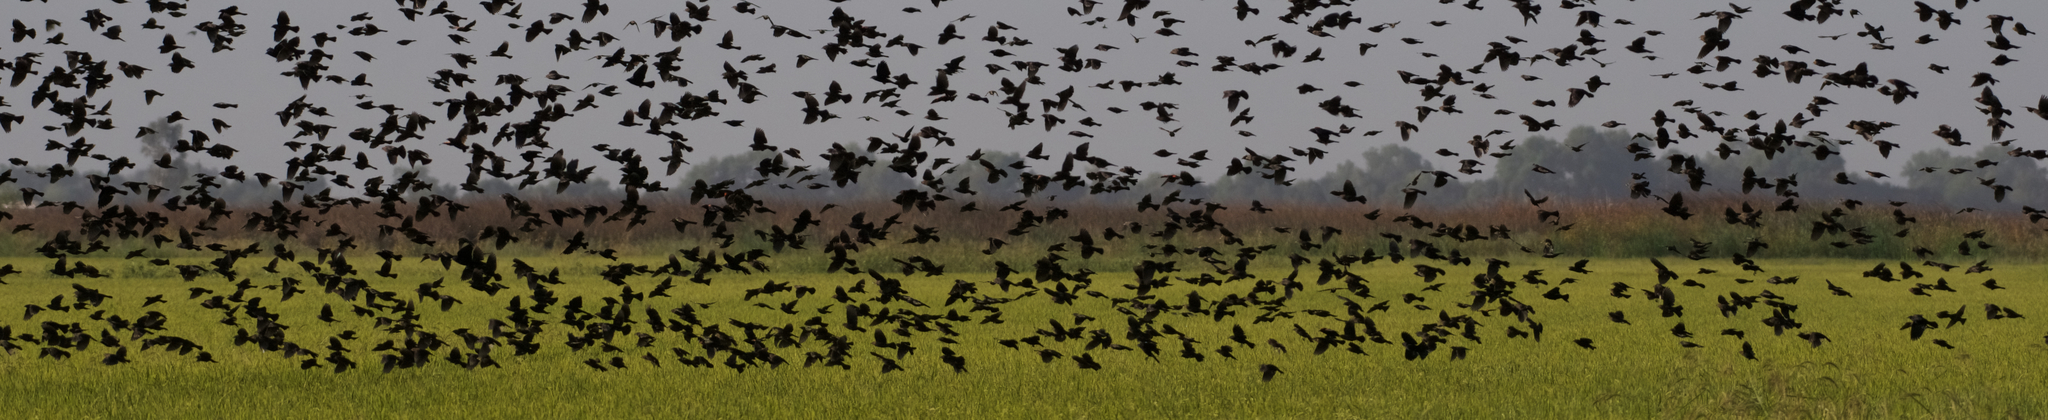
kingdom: Animalia
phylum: Chordata
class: Aves
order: Passeriformes
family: Icteridae
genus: Agelaius
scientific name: Agelaius phoeniceus
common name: Red-winged blackbird
